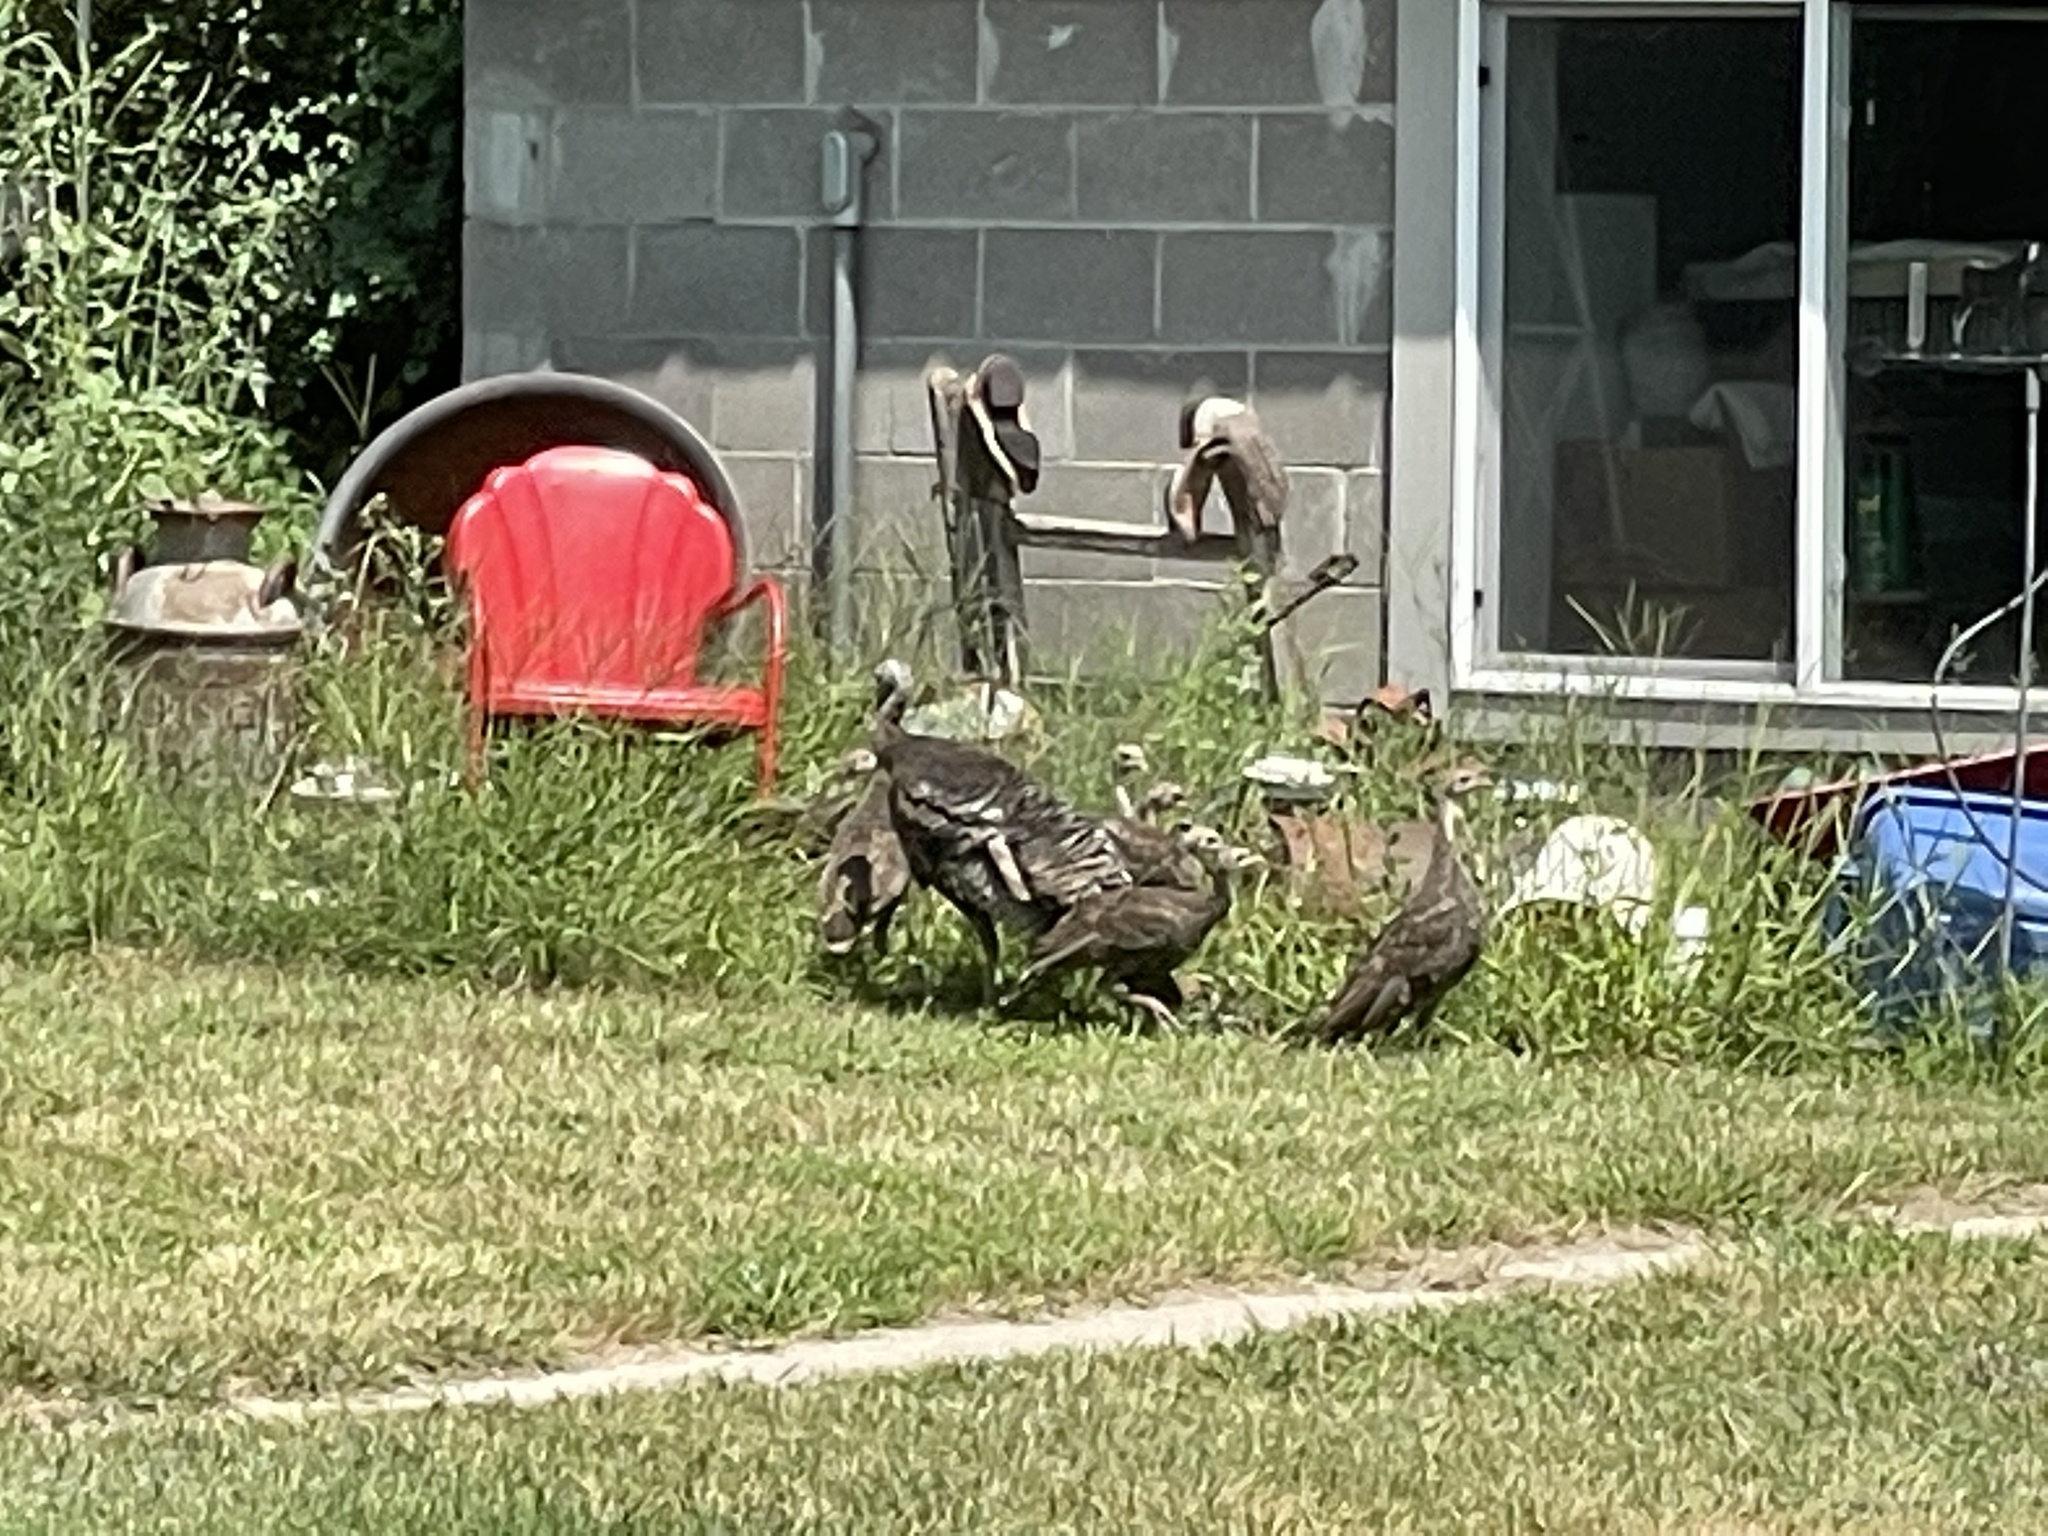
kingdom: Animalia
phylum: Chordata
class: Aves
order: Galliformes
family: Phasianidae
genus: Meleagris
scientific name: Meleagris gallopavo
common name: Wild turkey
